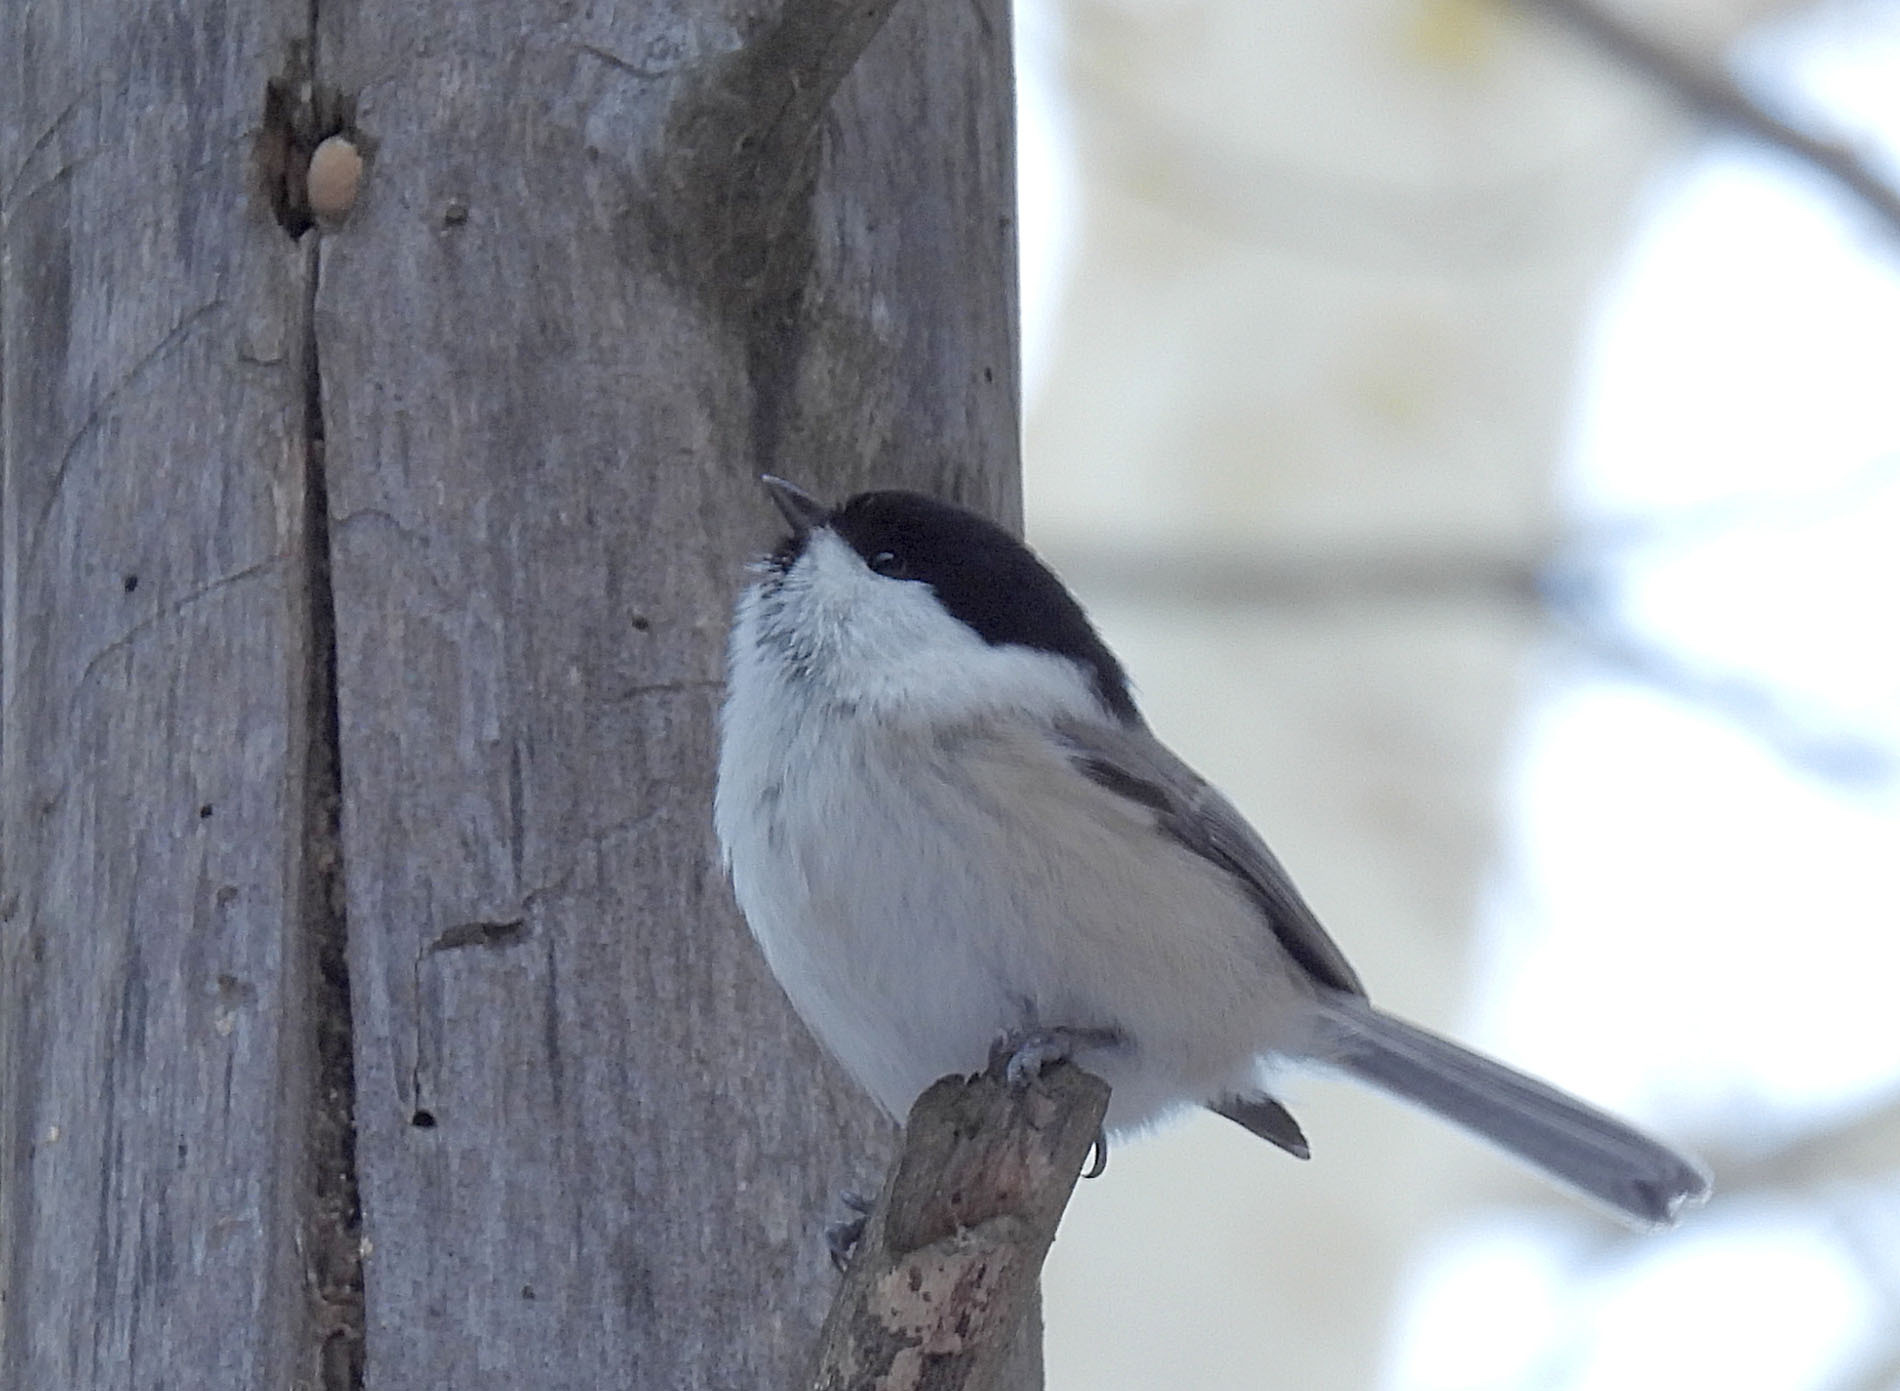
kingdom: Animalia
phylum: Chordata
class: Aves
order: Passeriformes
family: Paridae
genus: Poecile
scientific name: Poecile montanus
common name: Willow tit
